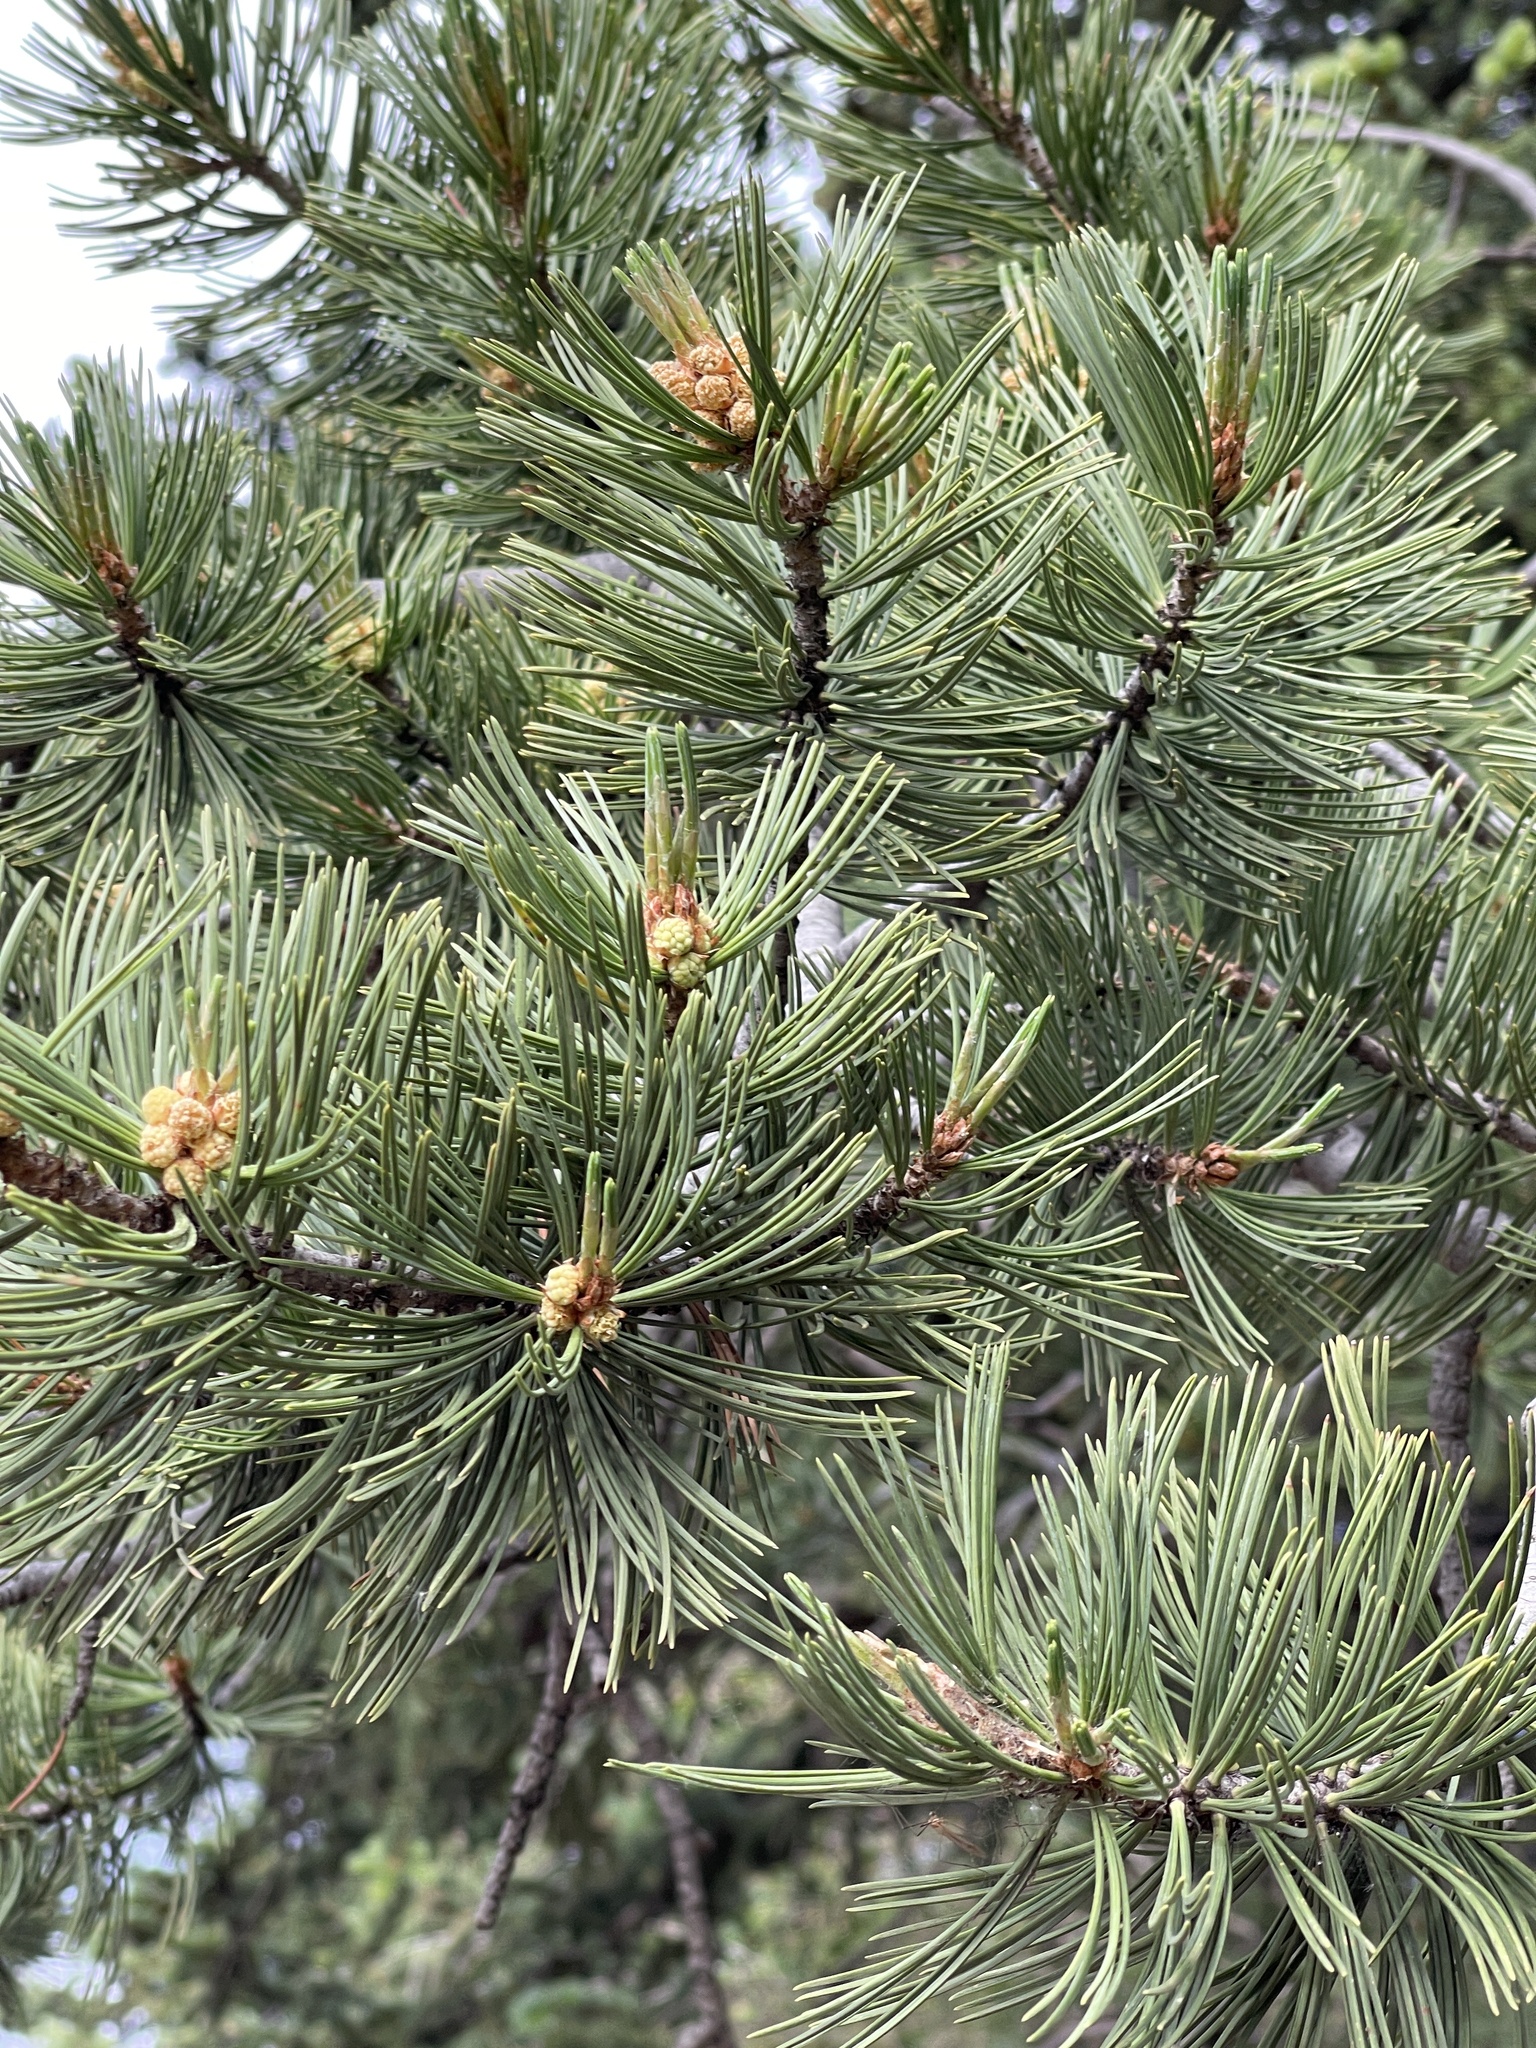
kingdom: Plantae
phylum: Tracheophyta
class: Pinopsida
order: Pinales
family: Pinaceae
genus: Pinus
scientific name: Pinus flexilis
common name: Limber pine
